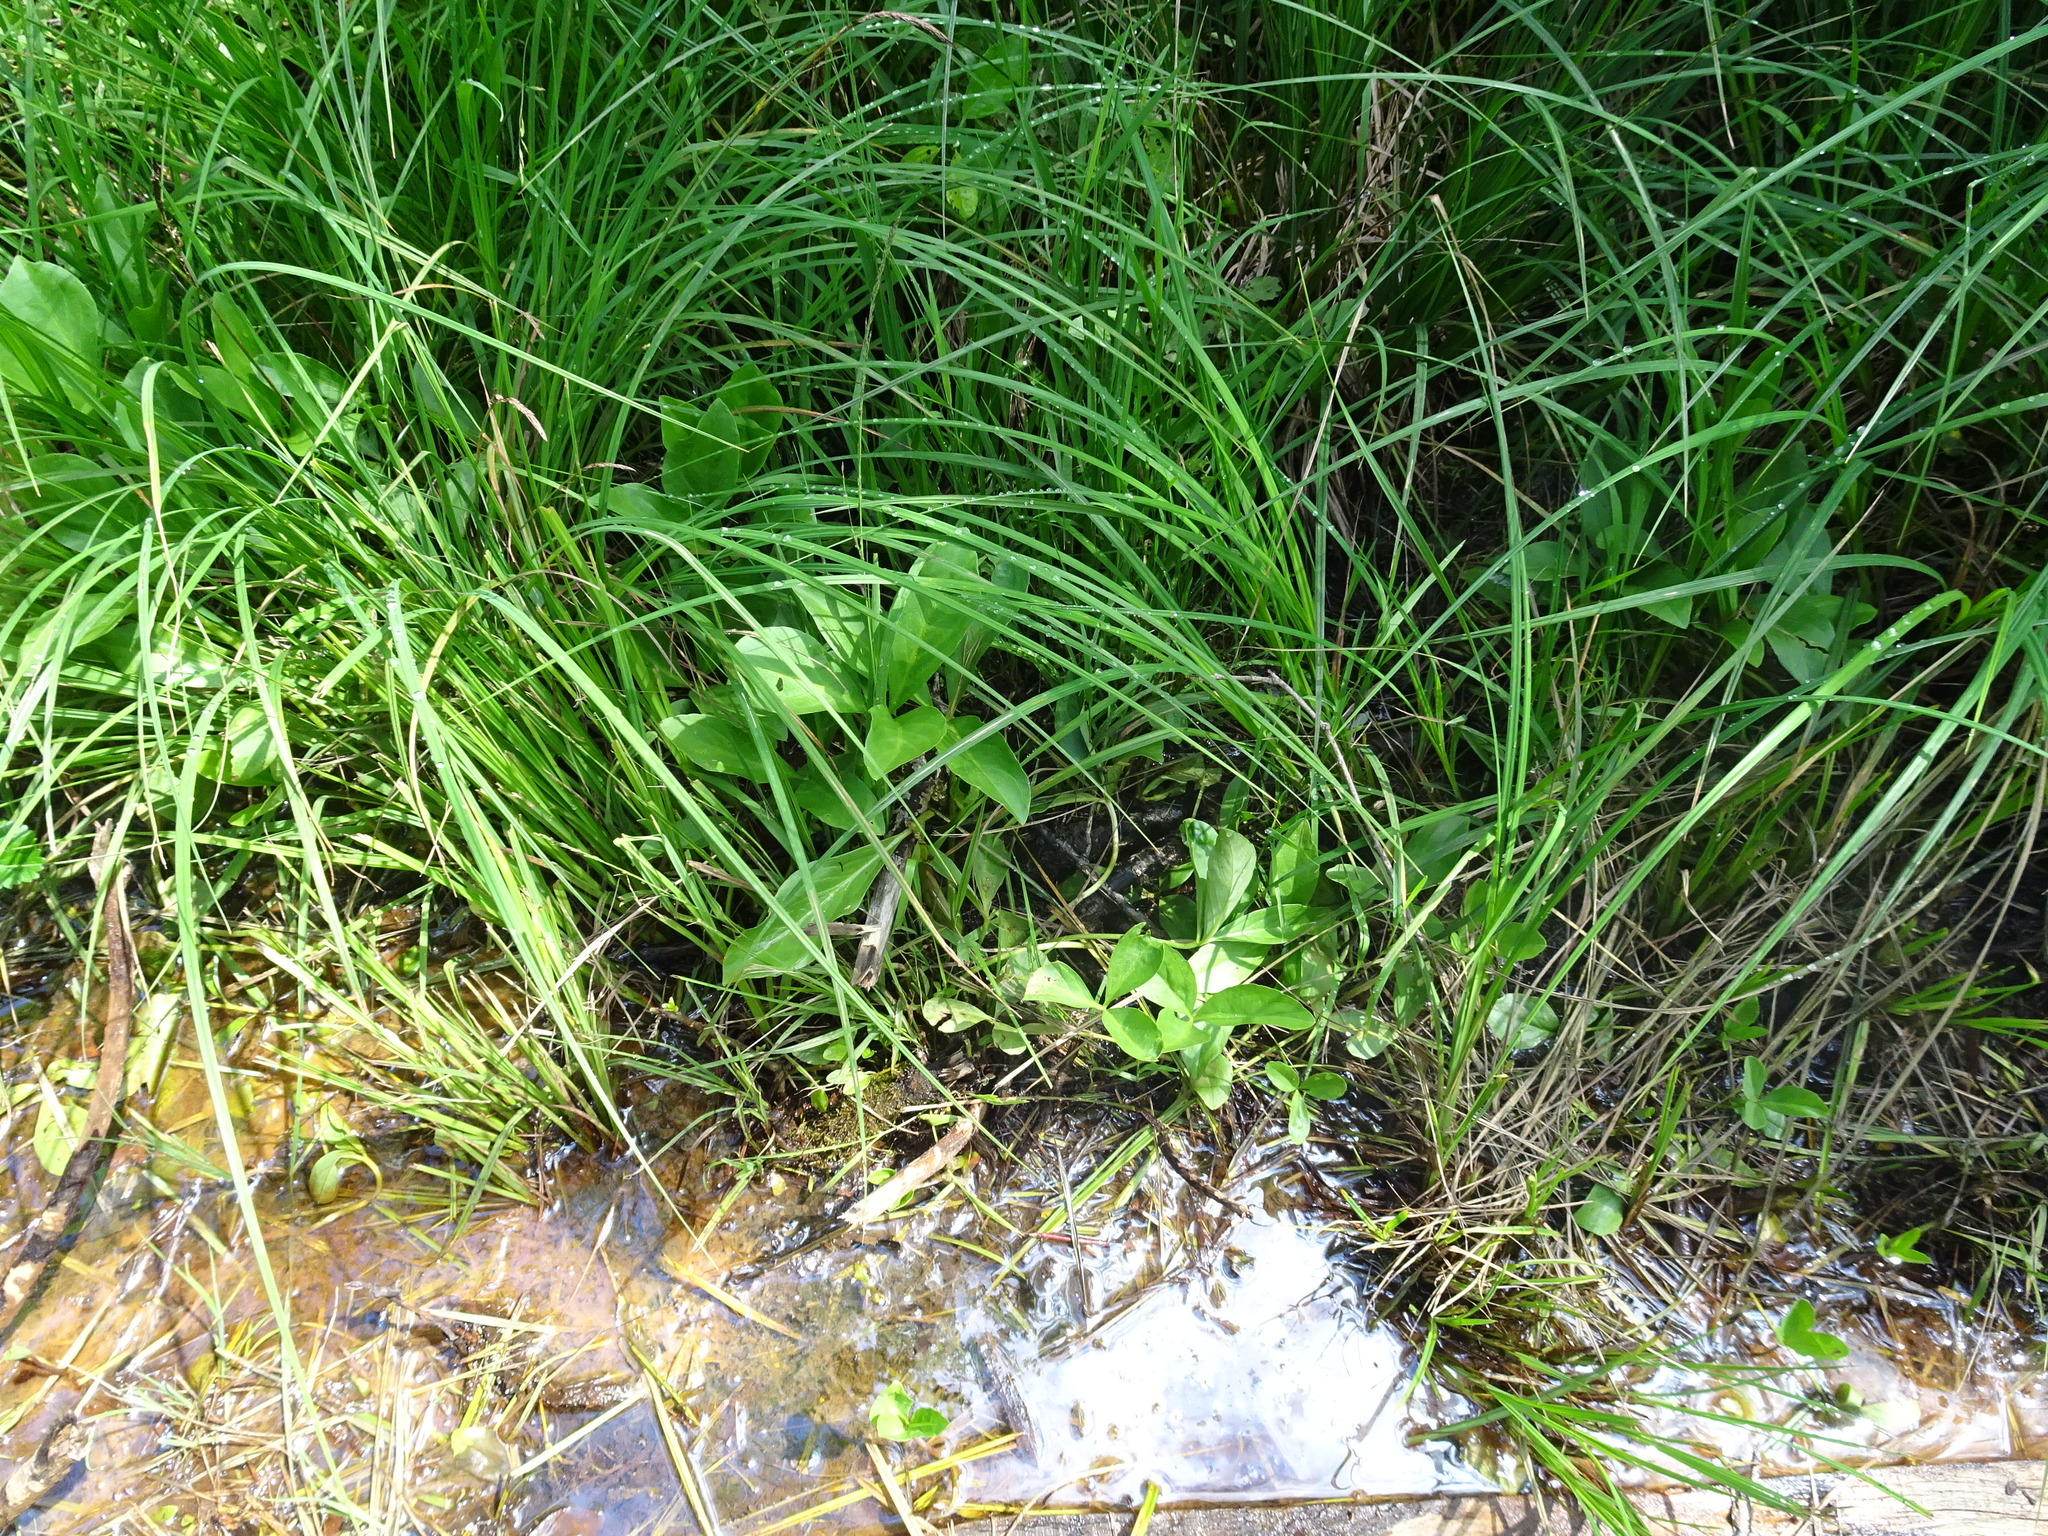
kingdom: Plantae
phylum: Tracheophyta
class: Magnoliopsida
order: Asterales
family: Menyanthaceae
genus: Menyanthes
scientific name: Menyanthes trifoliata
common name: Bogbean
